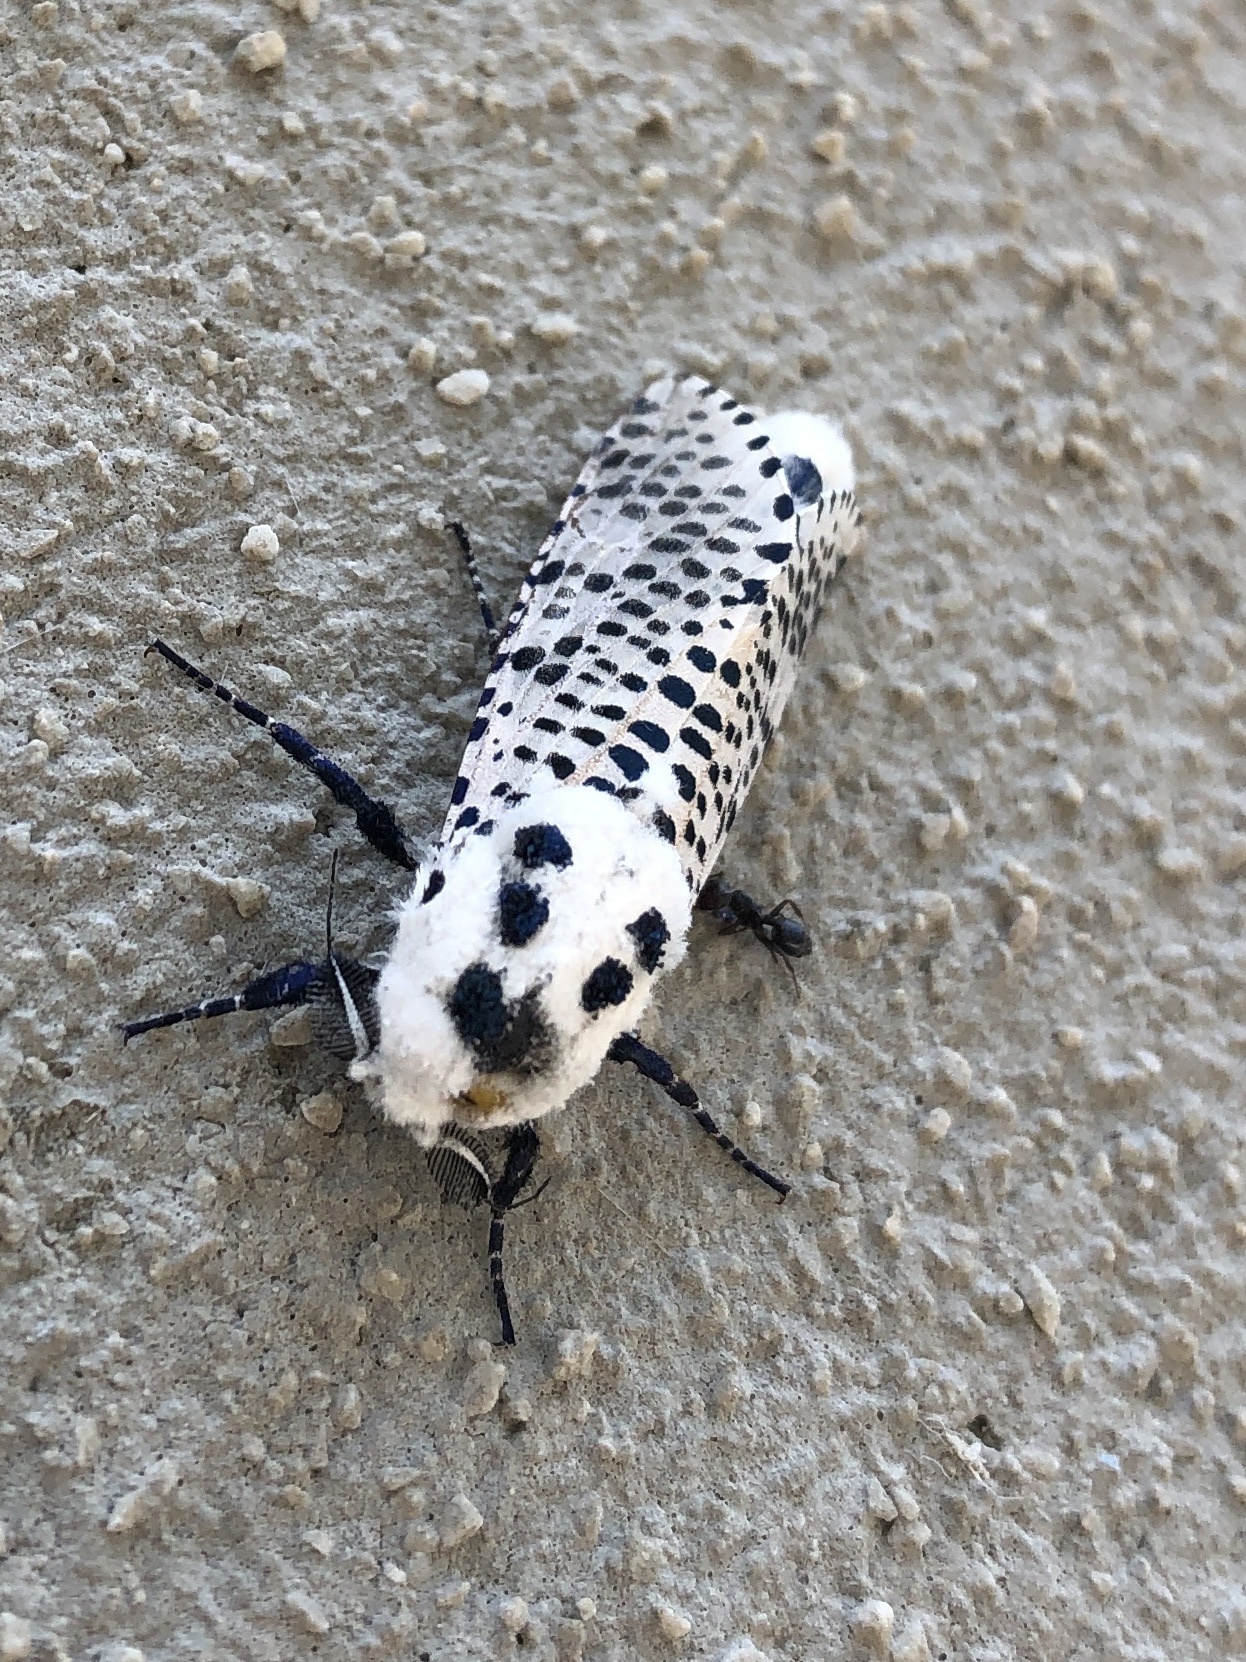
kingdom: Animalia
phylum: Arthropoda
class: Insecta
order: Lepidoptera
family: Cossidae
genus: Zeuzera
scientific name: Zeuzera pyrina
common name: Leopard moth
